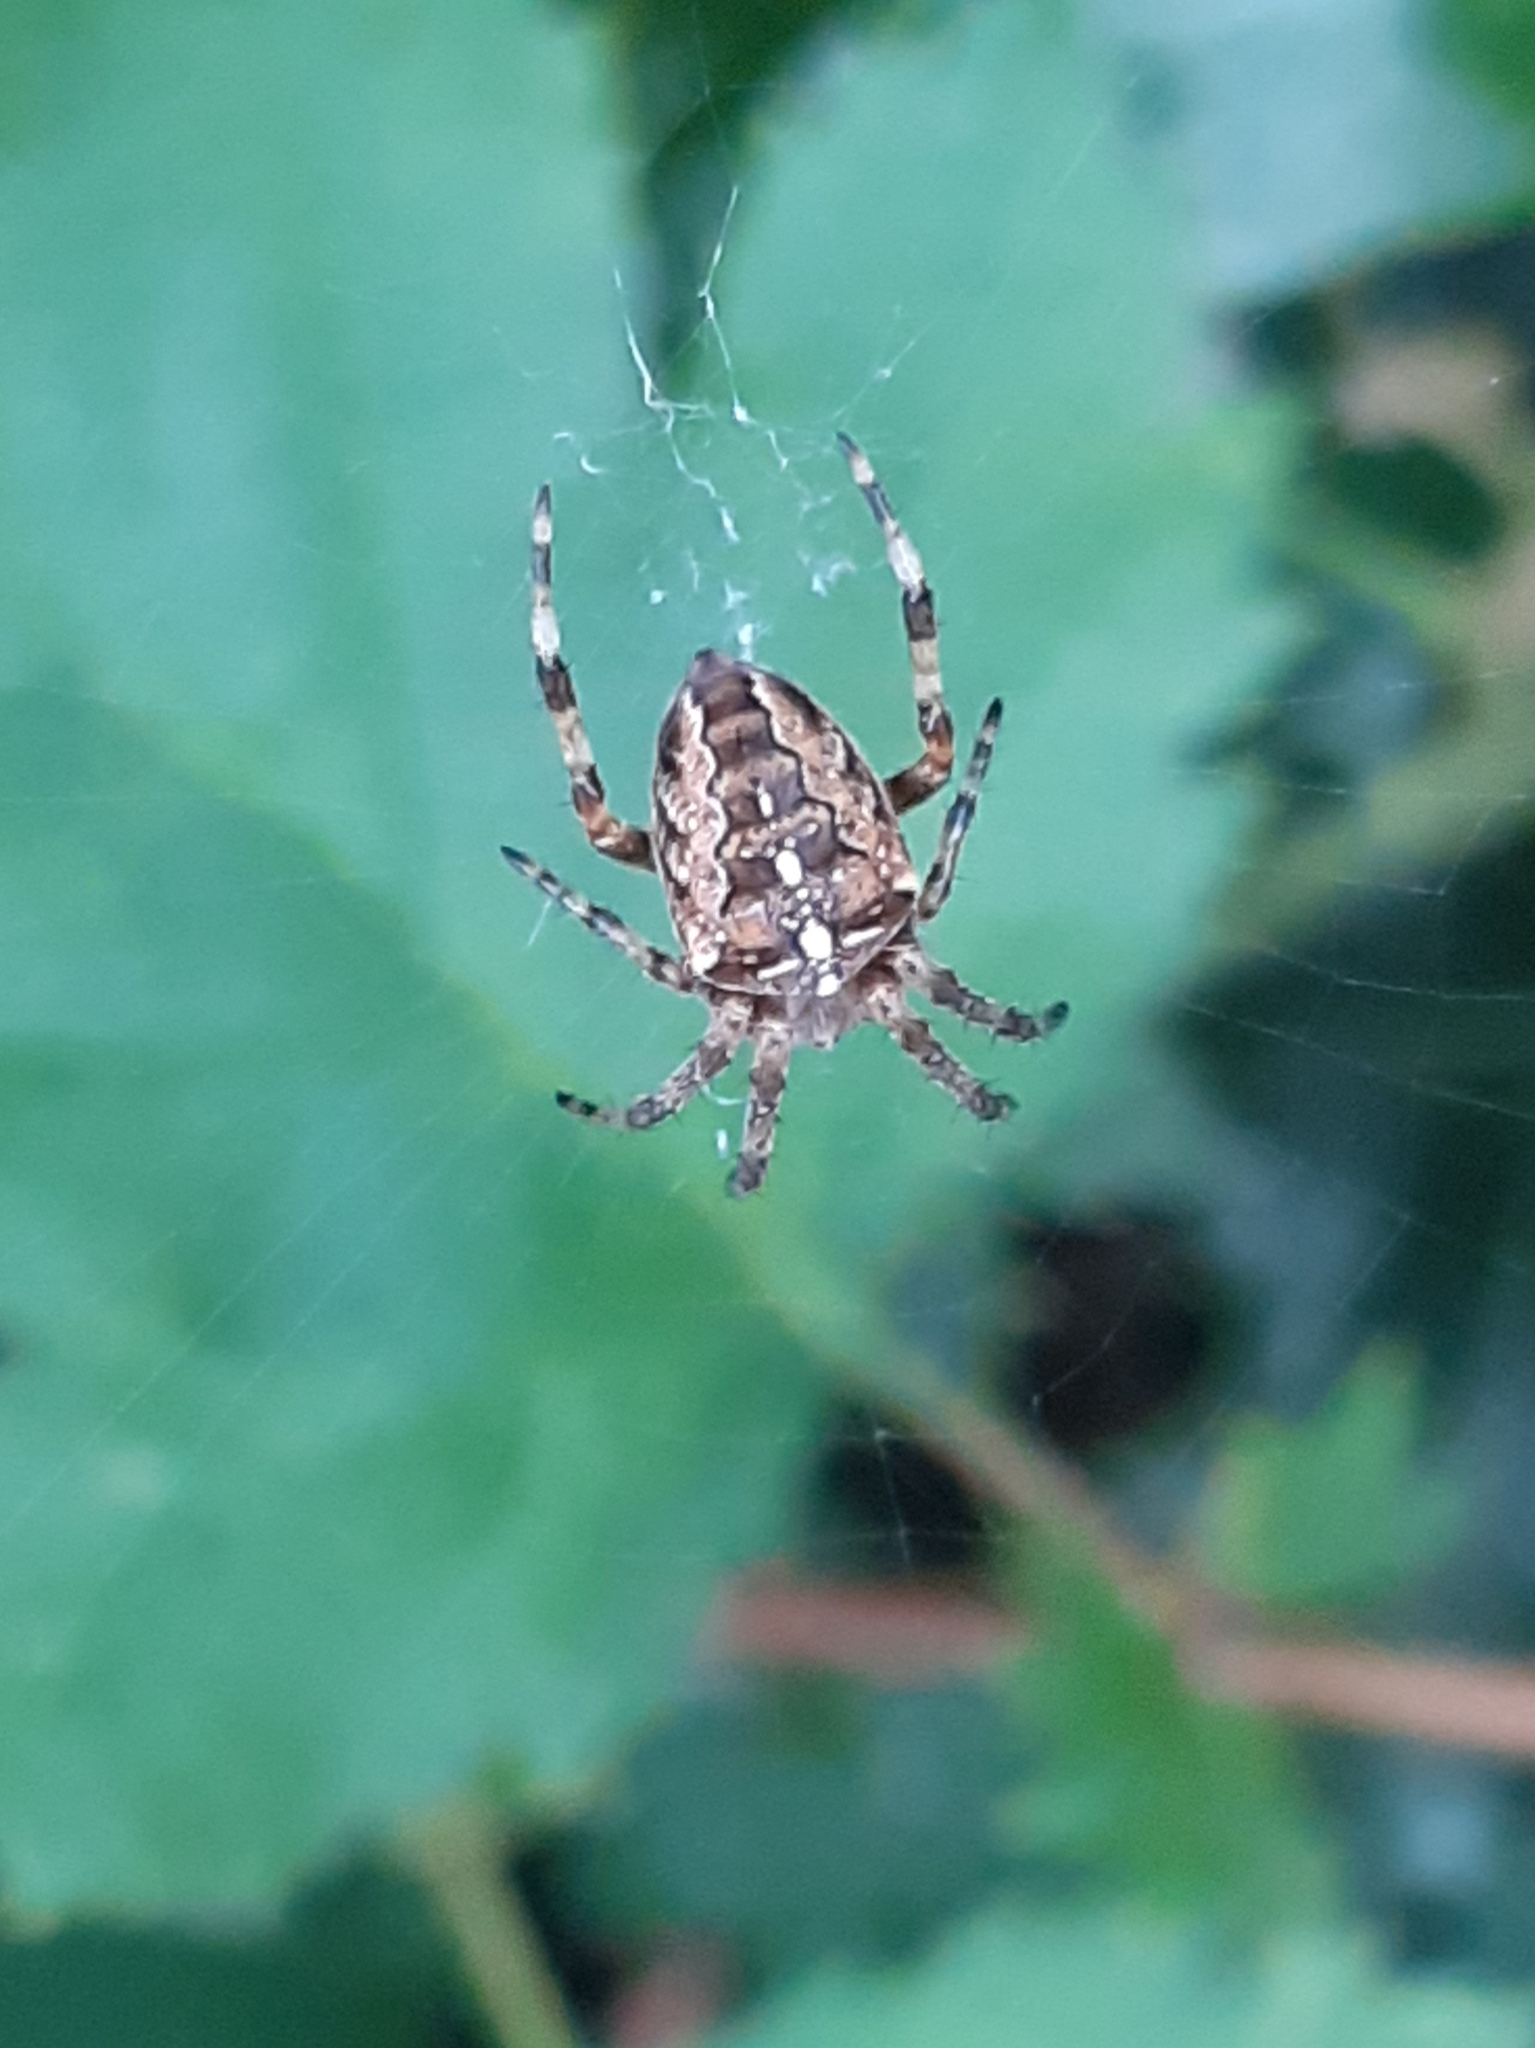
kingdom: Animalia
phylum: Arthropoda
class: Arachnida
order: Araneae
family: Araneidae
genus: Araneus
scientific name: Araneus diadematus
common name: Cross orbweaver
